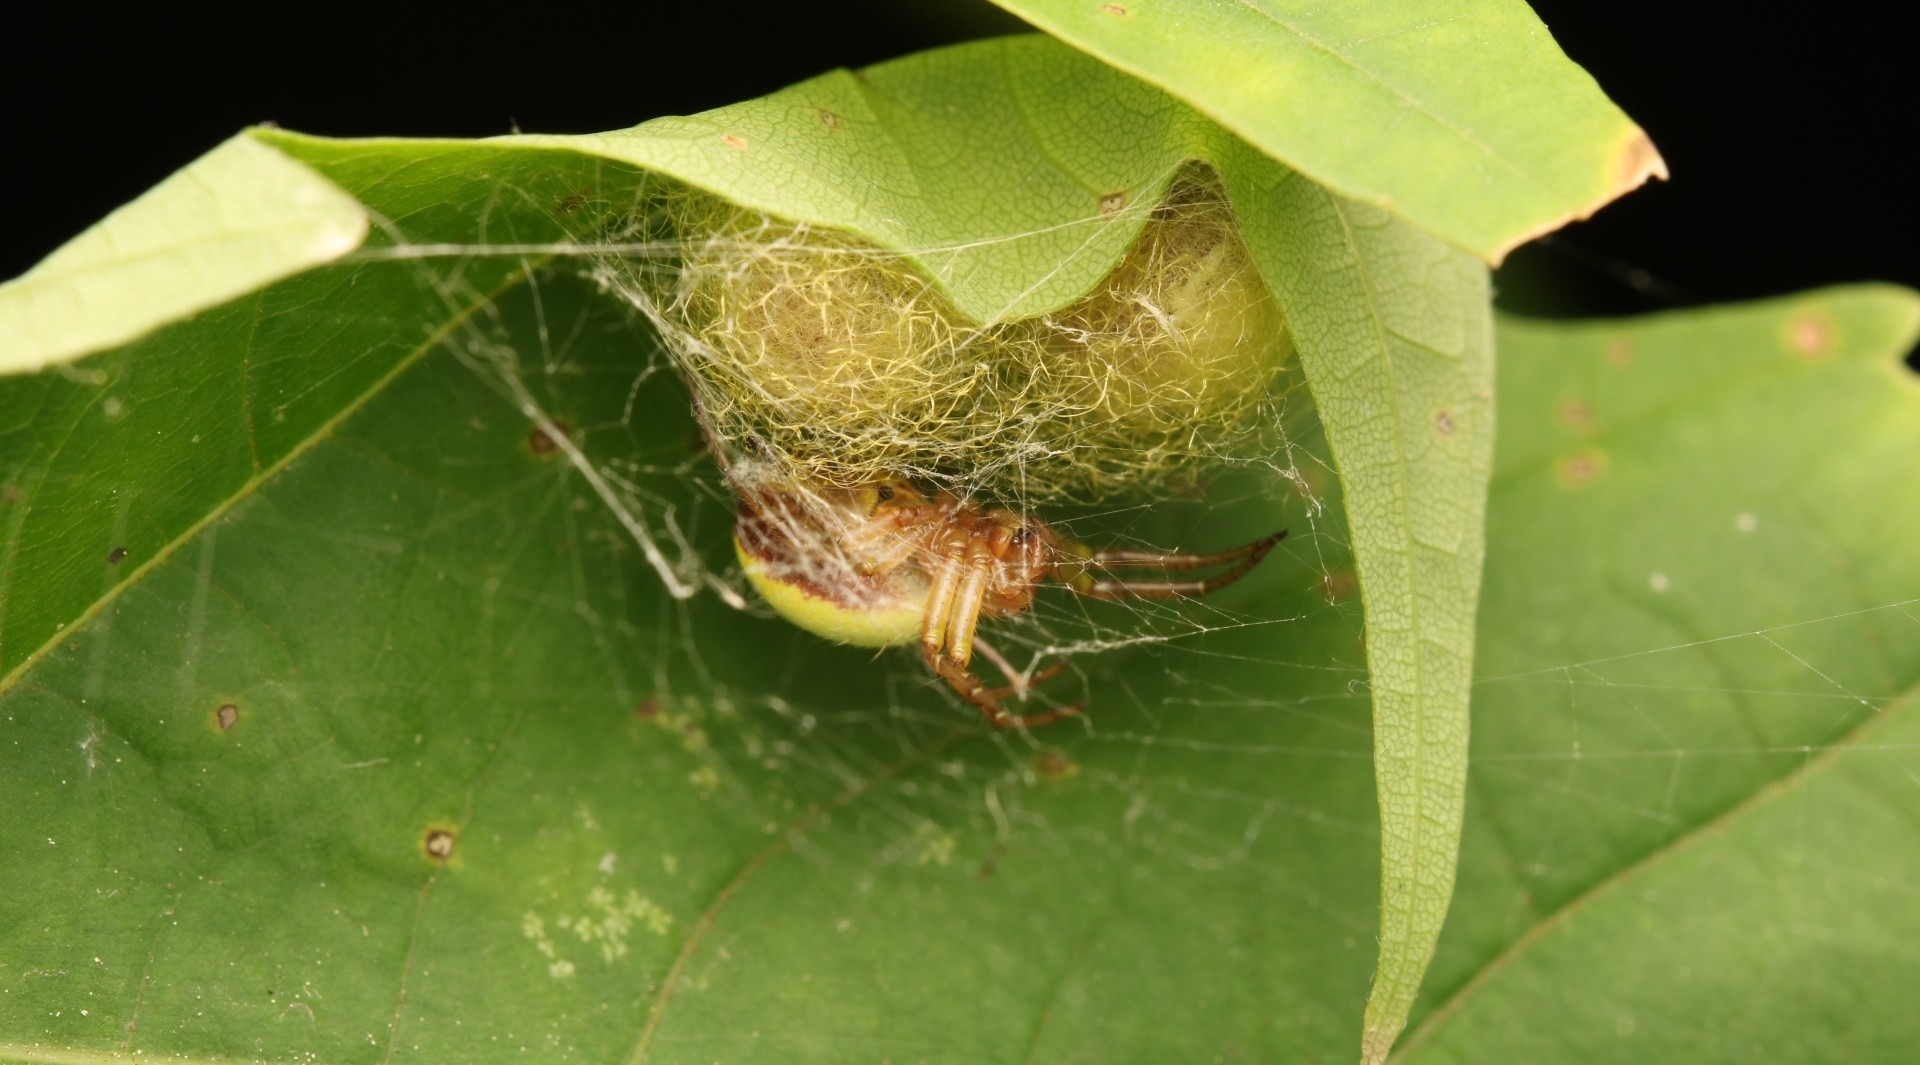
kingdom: Animalia
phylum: Arthropoda
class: Arachnida
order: Araneae
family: Araneidae
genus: Araniella
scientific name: Araniella displicata
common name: Sixspotted orb weaver
